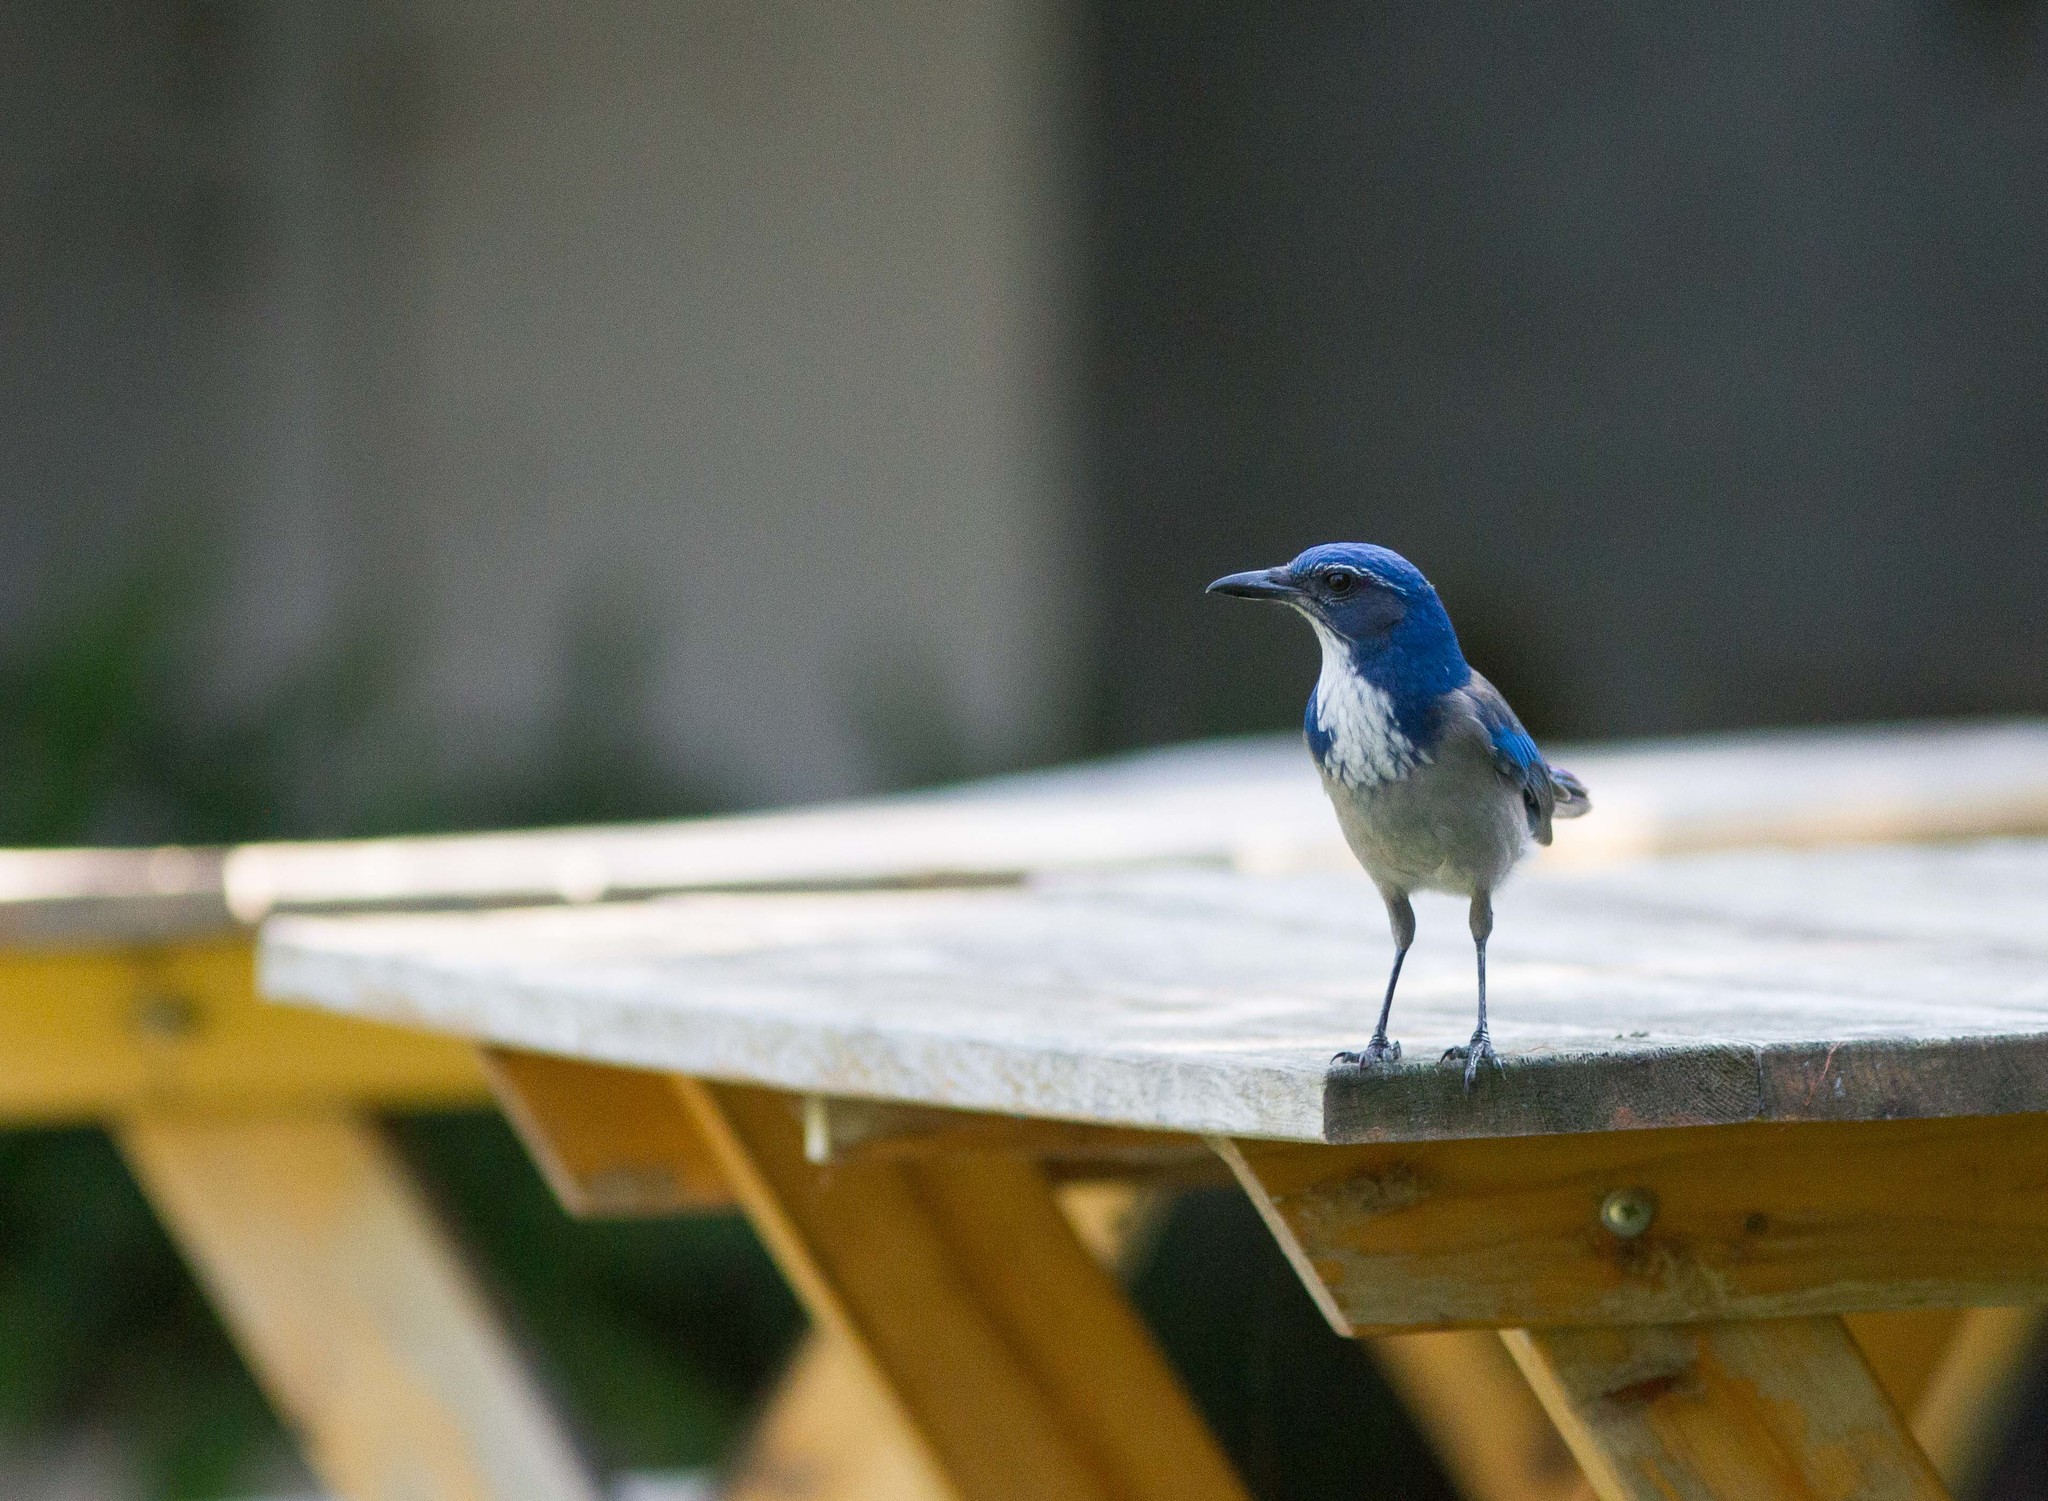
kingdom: Animalia
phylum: Chordata
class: Aves
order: Passeriformes
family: Corvidae
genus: Aphelocoma
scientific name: Aphelocoma californica
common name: California scrub-jay
